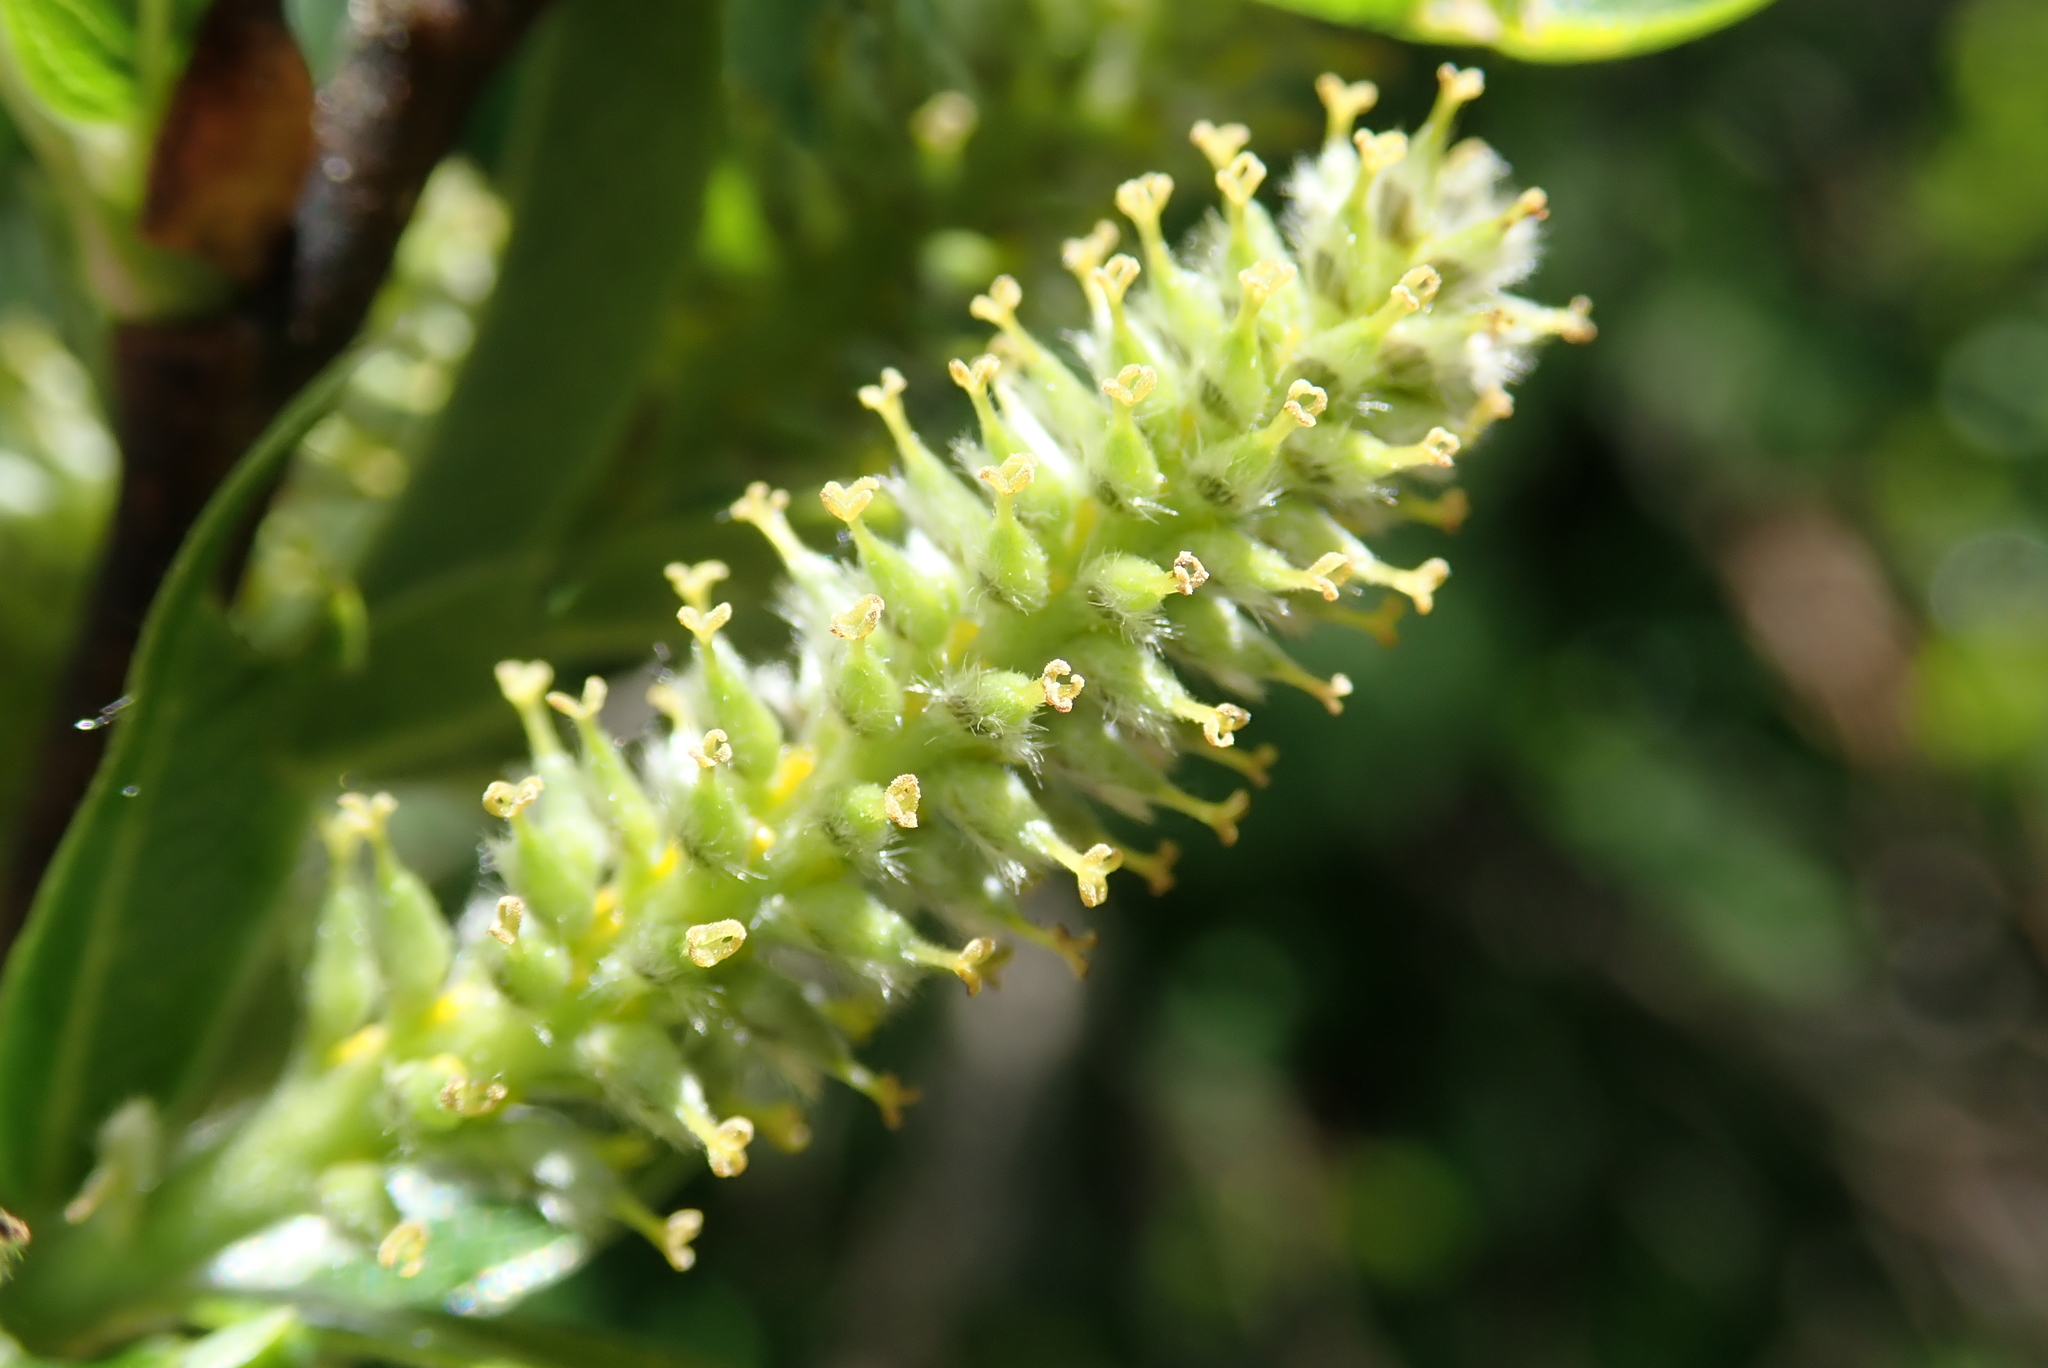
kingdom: Plantae
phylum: Tracheophyta
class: Magnoliopsida
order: Malpighiales
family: Salicaceae
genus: Salix
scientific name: Salix waldsteiniana
